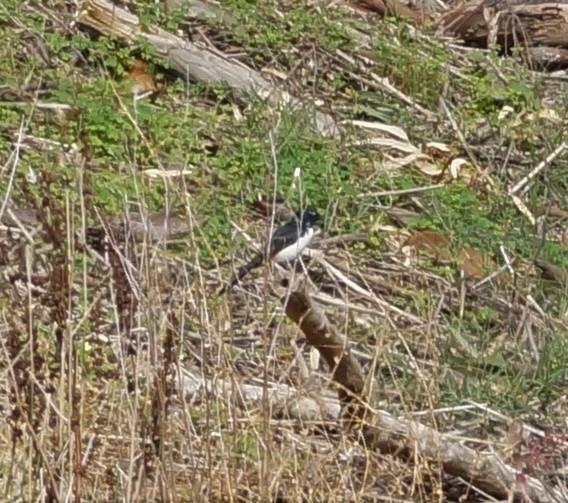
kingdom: Animalia
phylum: Chordata
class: Aves
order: Passeriformes
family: Rhipiduridae
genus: Rhipidura
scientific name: Rhipidura leucophrys
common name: Willie wagtail
